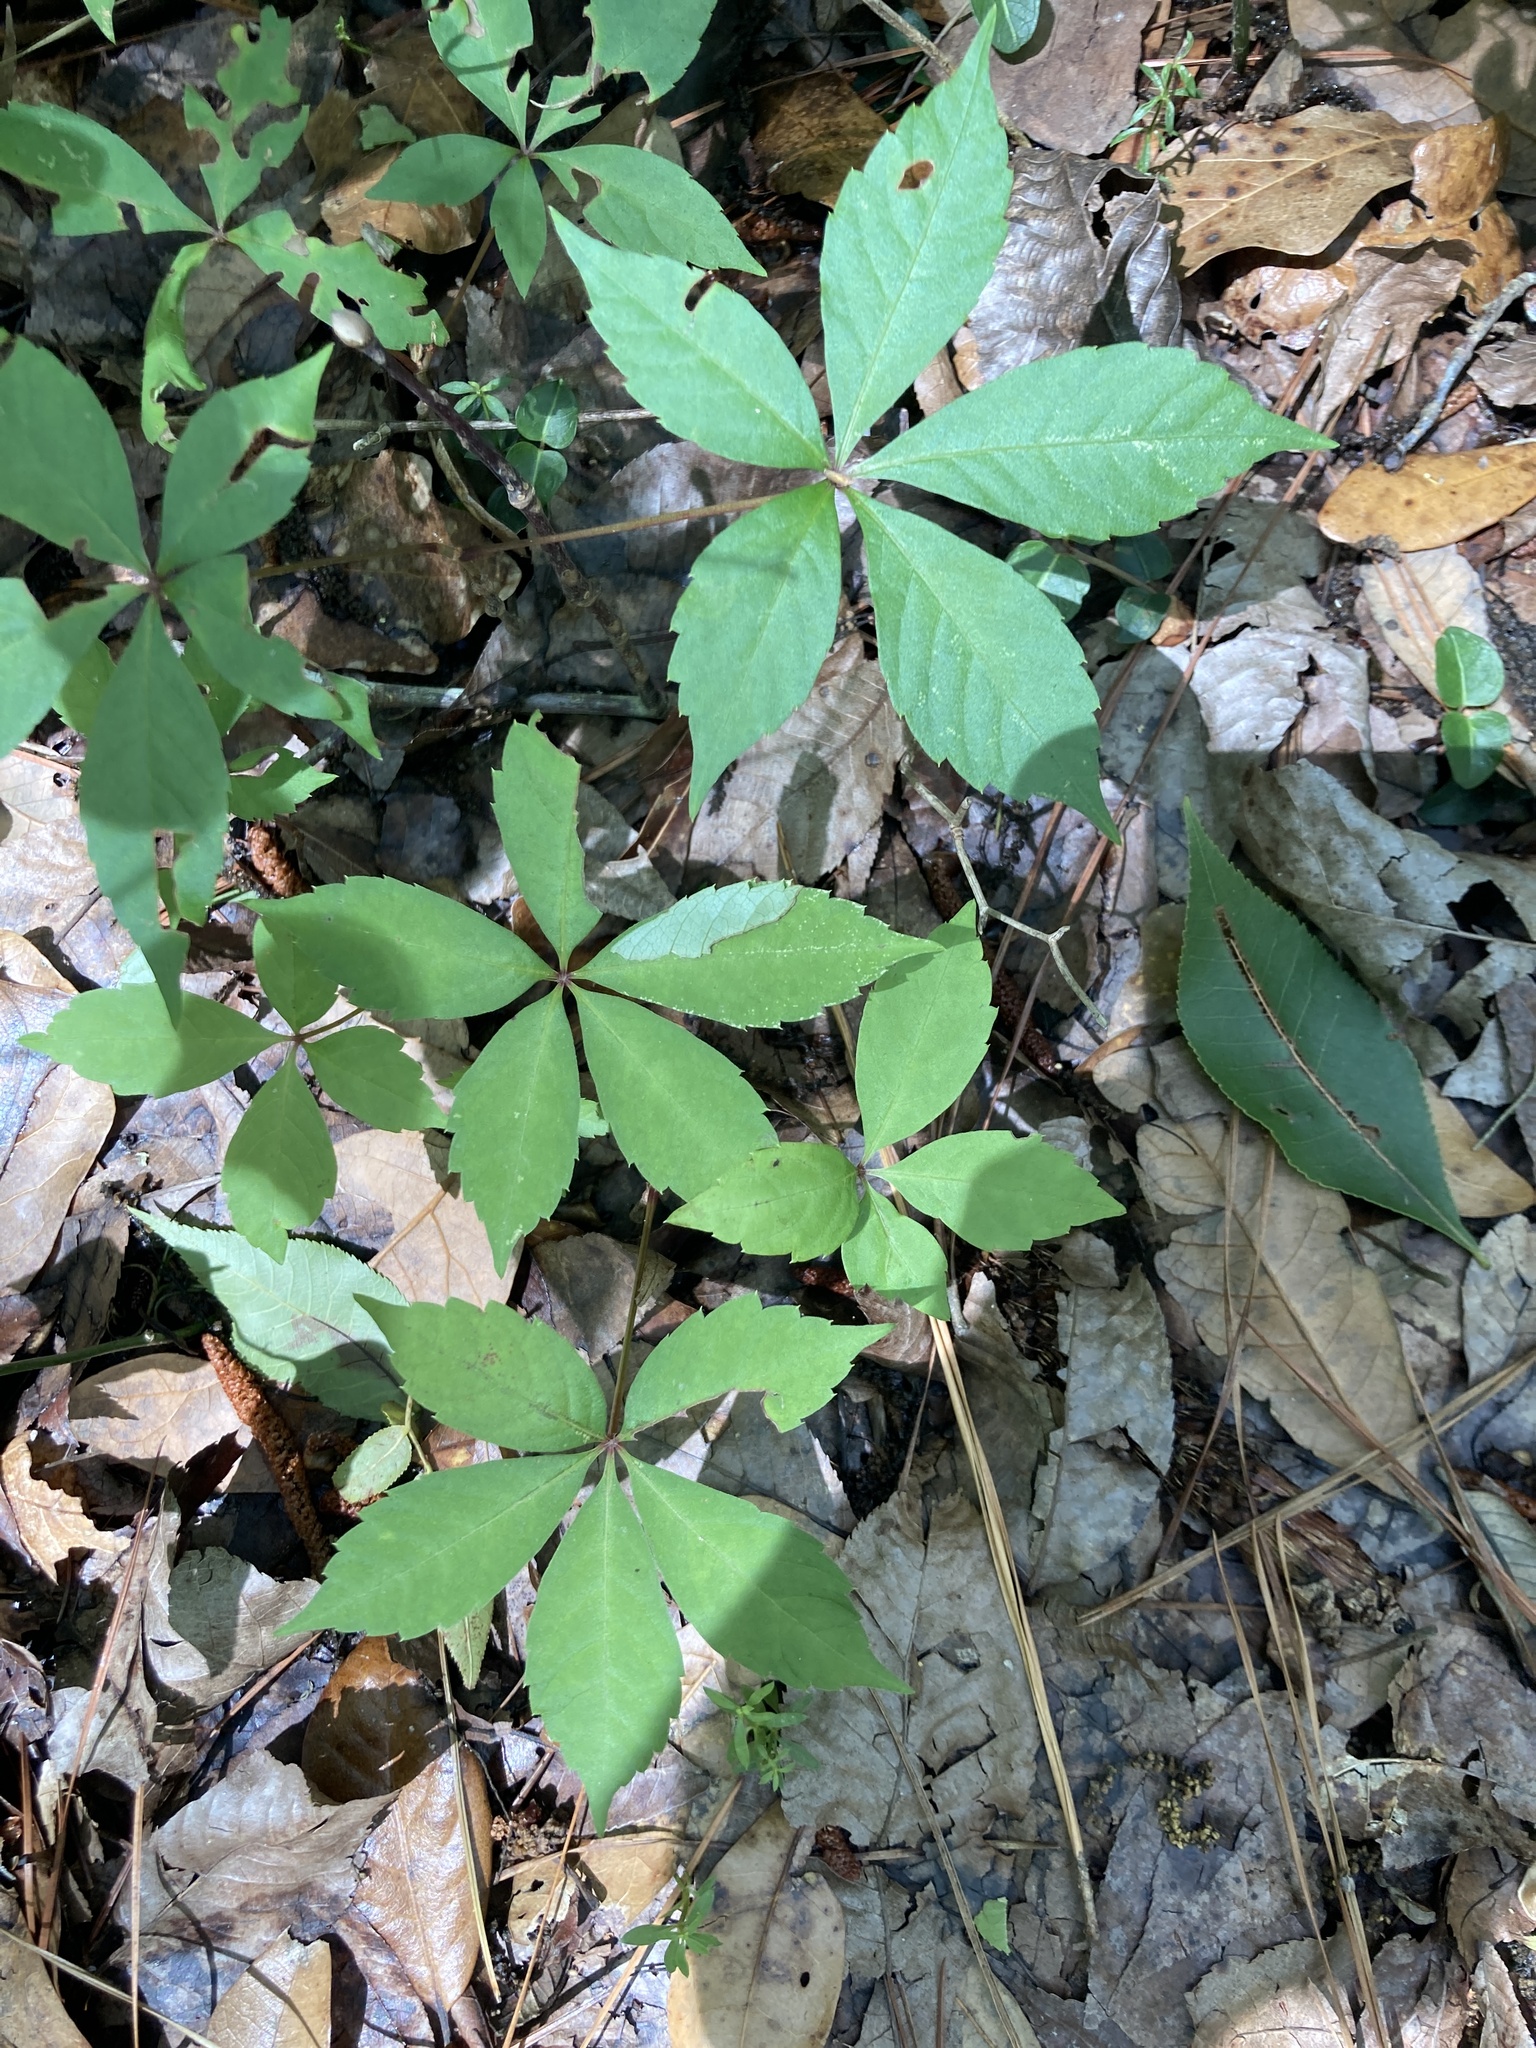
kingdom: Plantae
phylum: Tracheophyta
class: Magnoliopsida
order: Vitales
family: Vitaceae
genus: Parthenocissus
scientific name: Parthenocissus quinquefolia
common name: Virginia-creeper
